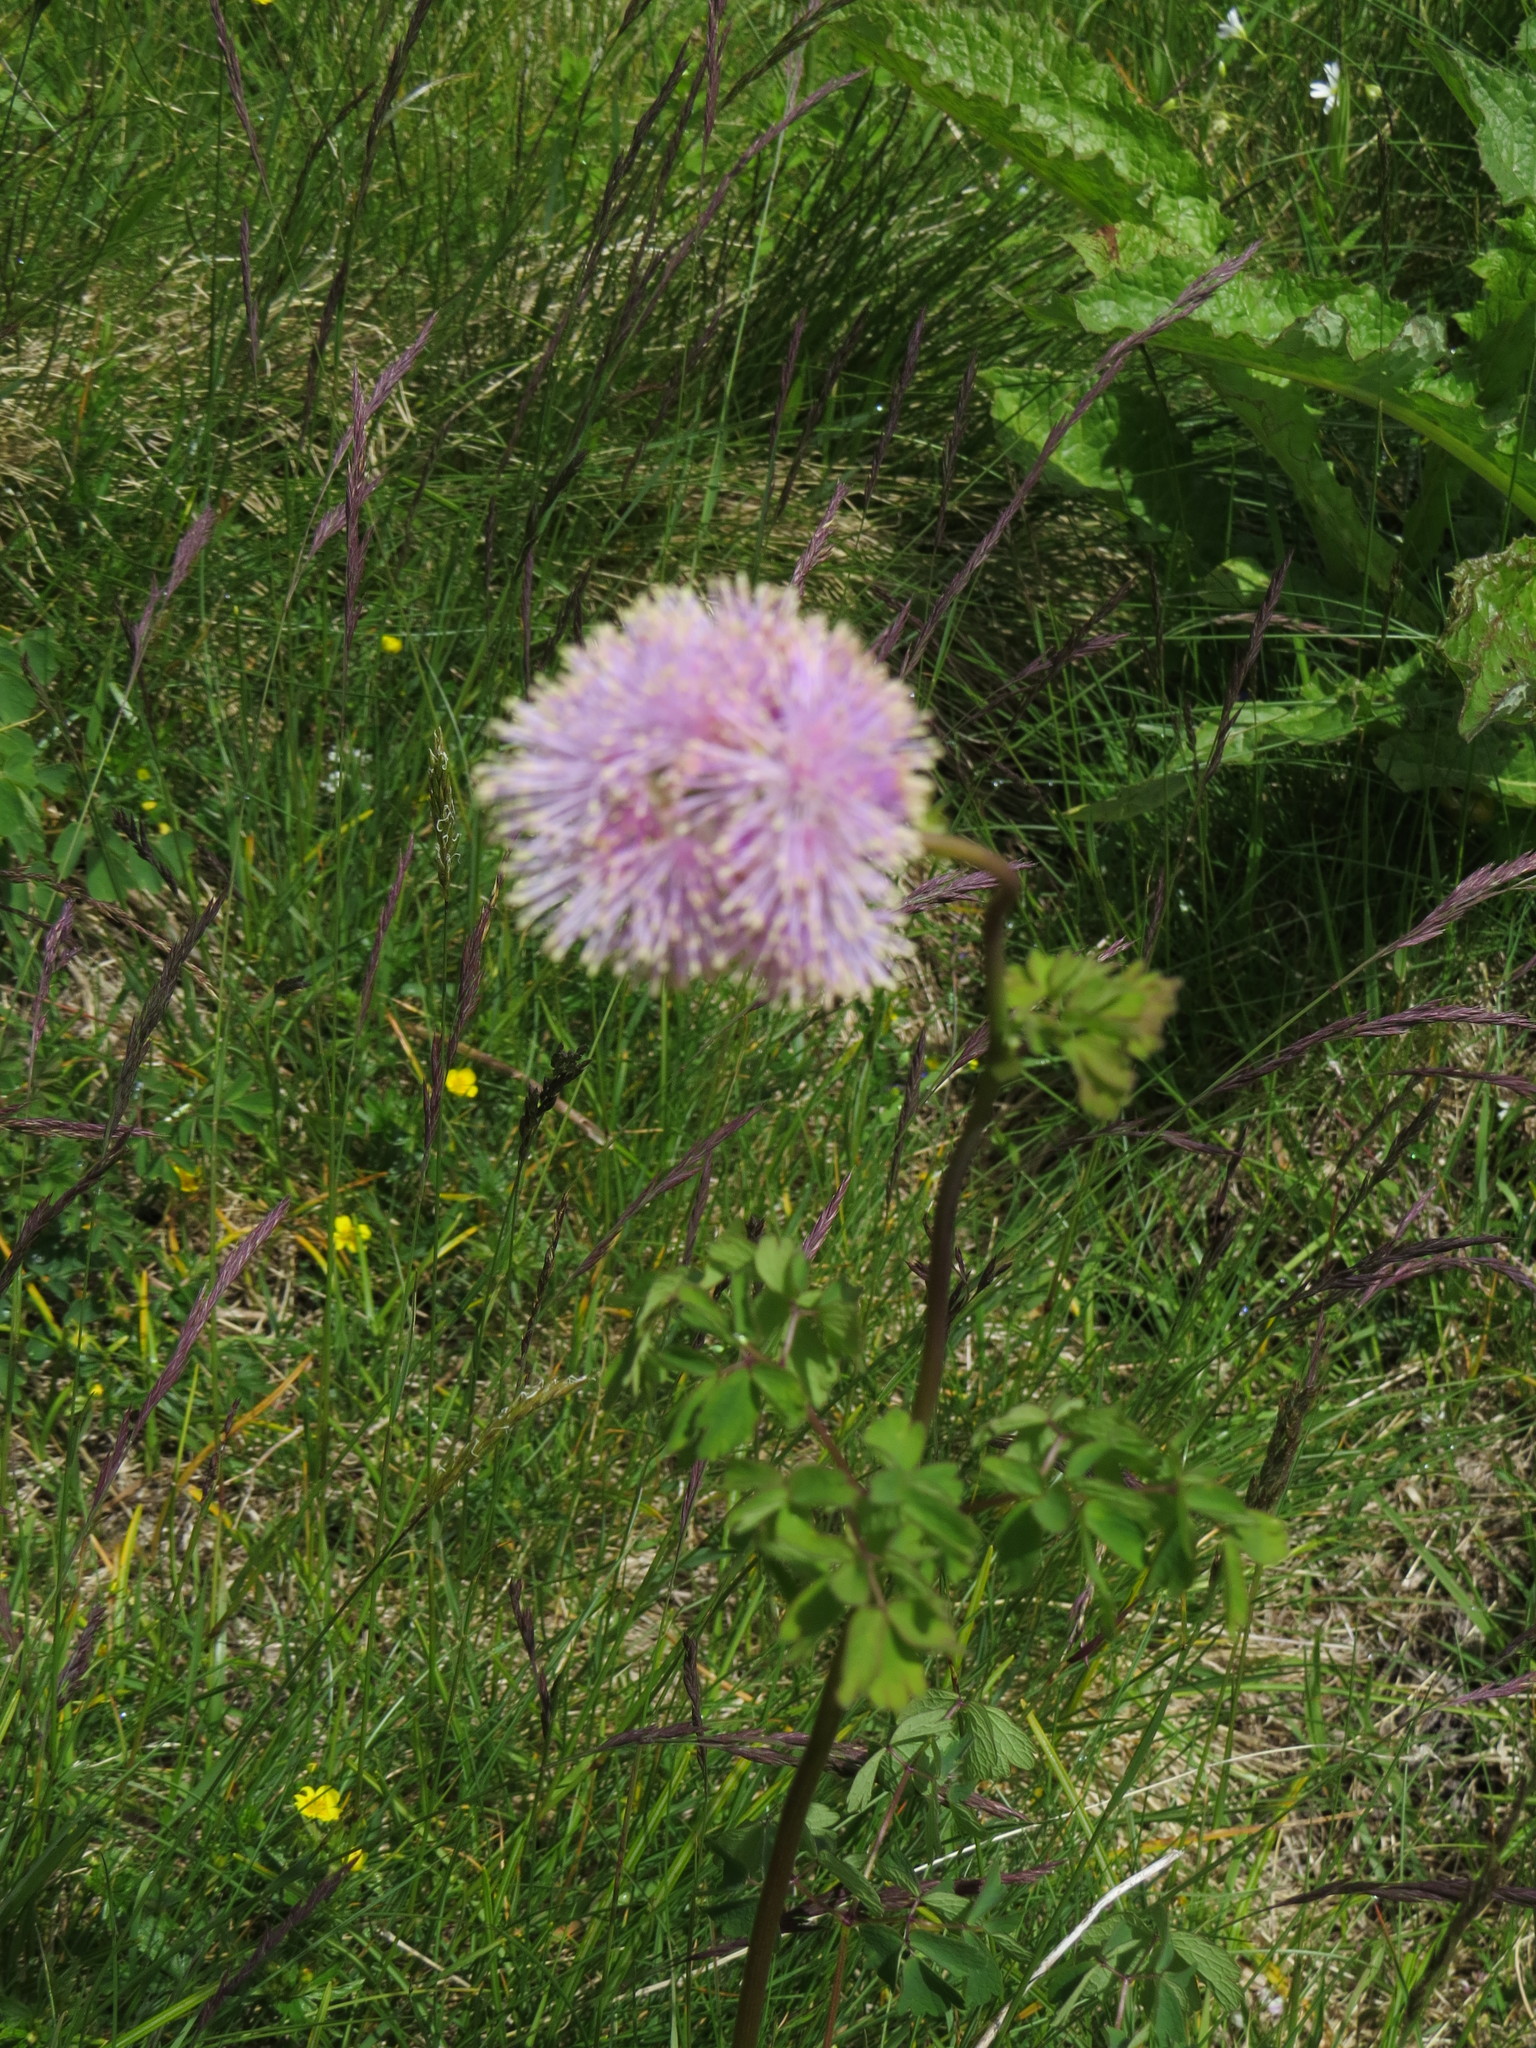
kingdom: Plantae
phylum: Tracheophyta
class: Magnoliopsida
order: Ranunculales
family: Ranunculaceae
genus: Thalictrum
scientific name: Thalictrum aquilegiifolium
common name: French meadow-rue
